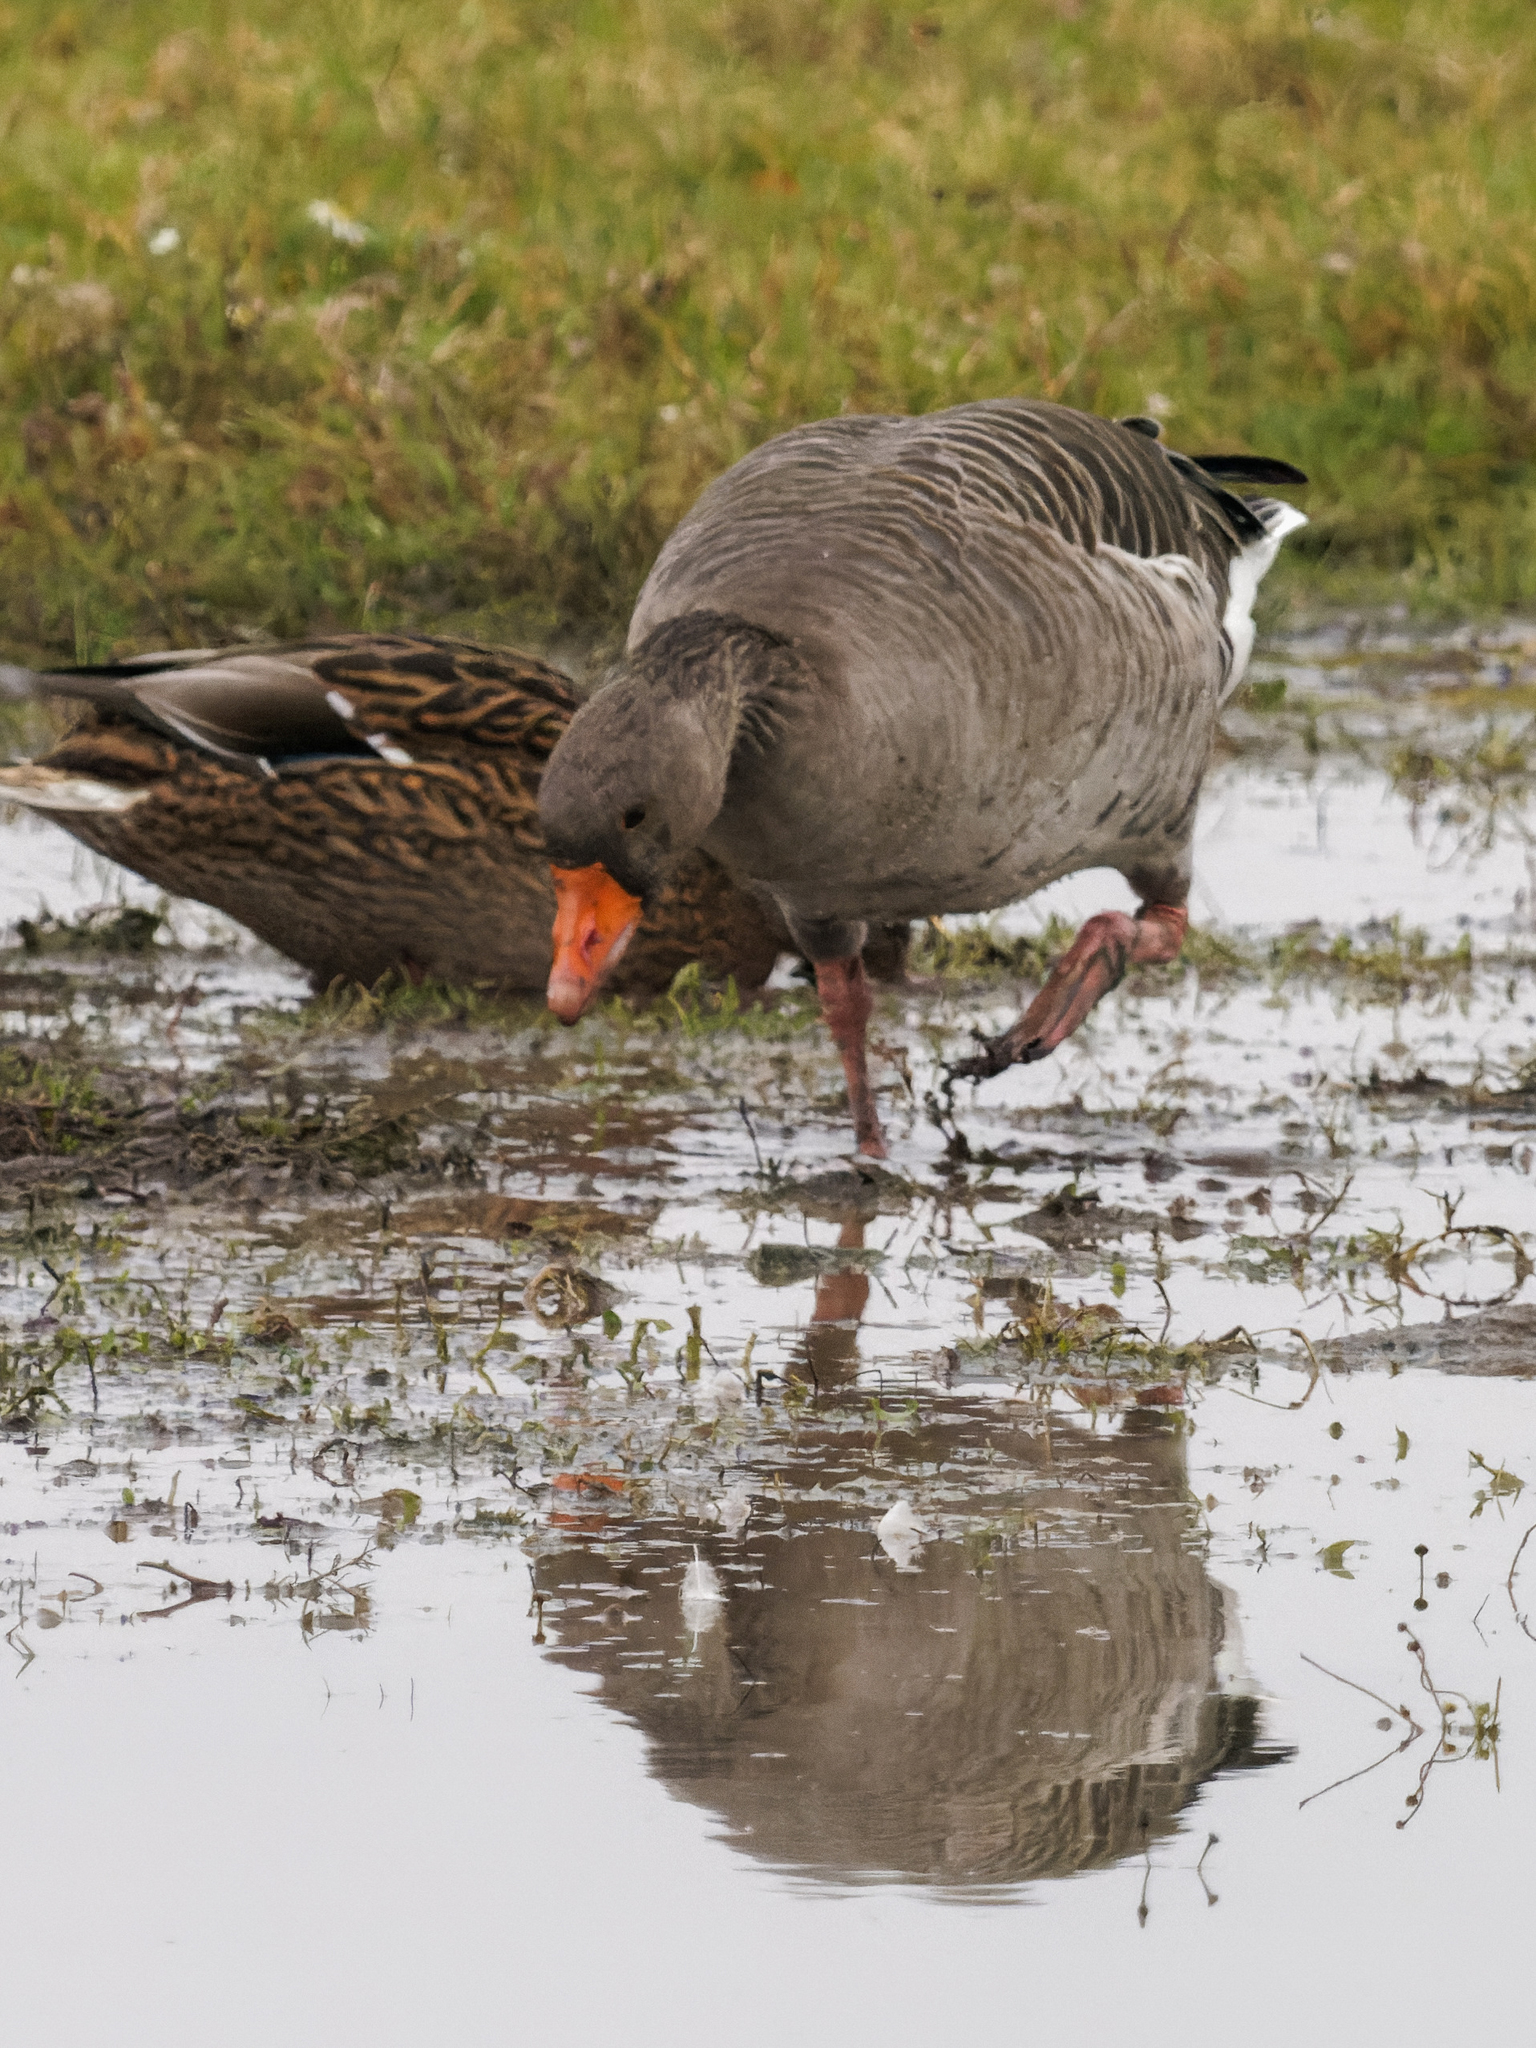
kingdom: Animalia
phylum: Chordata
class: Aves
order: Anseriformes
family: Anatidae
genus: Anser
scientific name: Anser anser
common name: Greylag goose
